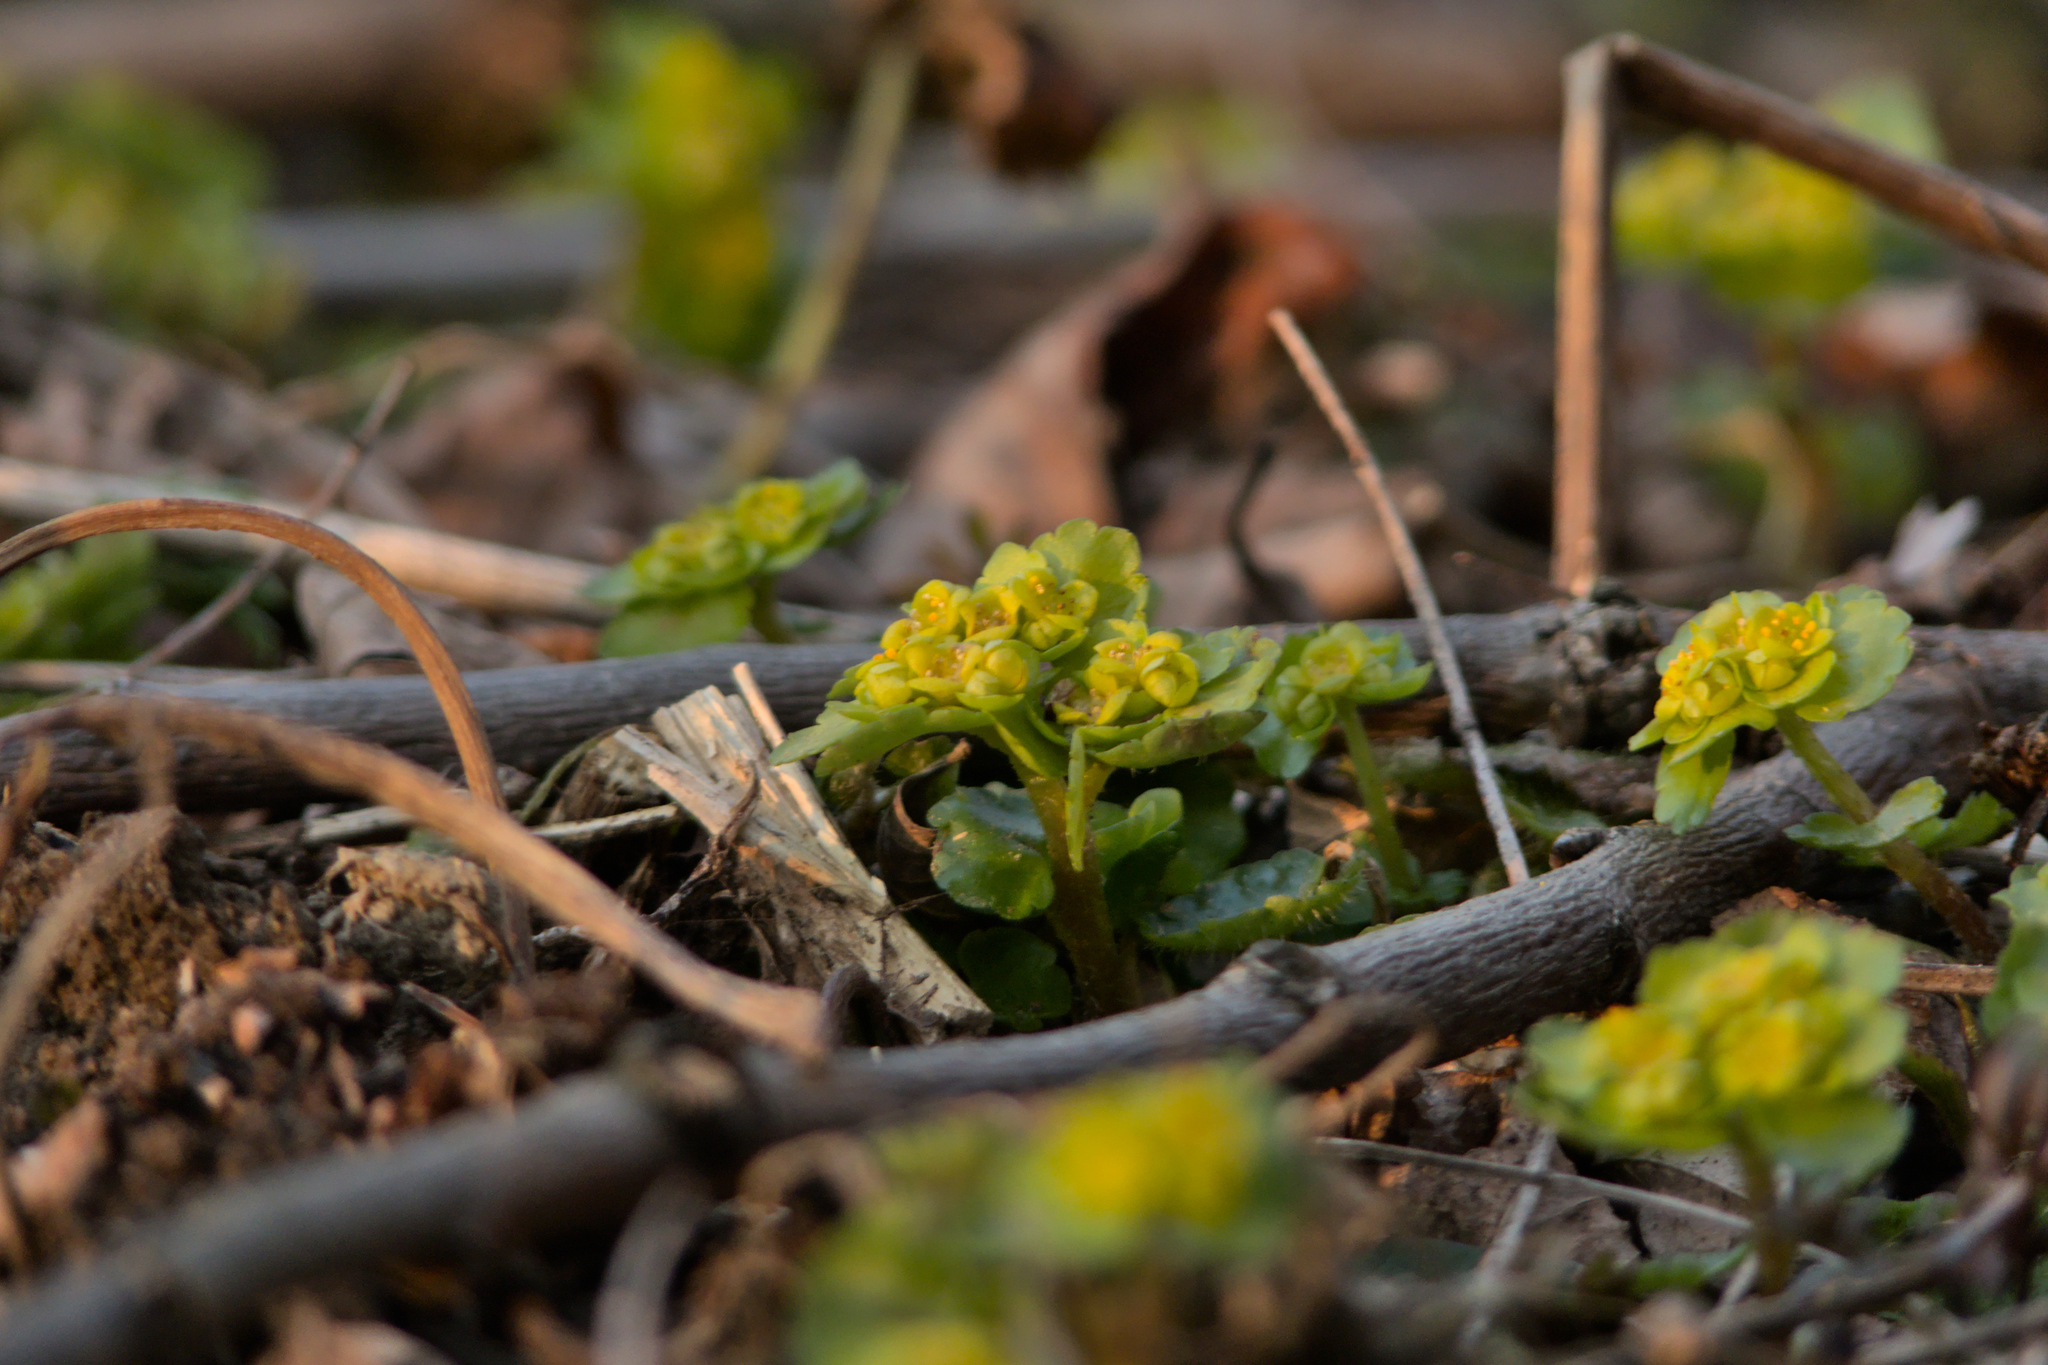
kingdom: Plantae
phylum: Tracheophyta
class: Magnoliopsida
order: Saxifragales
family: Saxifragaceae
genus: Chrysosplenium
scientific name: Chrysosplenium alternifolium
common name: Alternate-leaved golden-saxifrage
